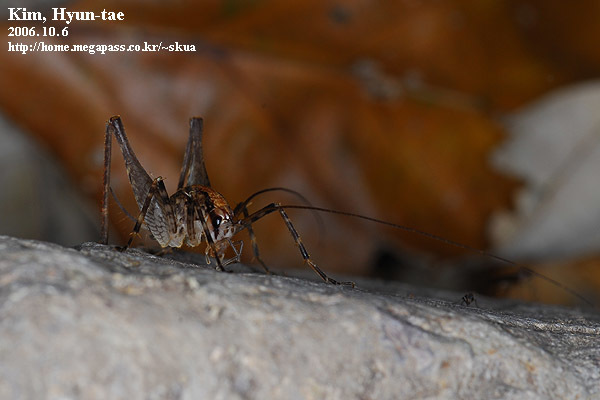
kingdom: Animalia
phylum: Arthropoda
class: Insecta
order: Orthoptera
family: Rhaphidophoridae
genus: Tachycines
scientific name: Tachycines asynamorus
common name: Greenhouse camel cricket
